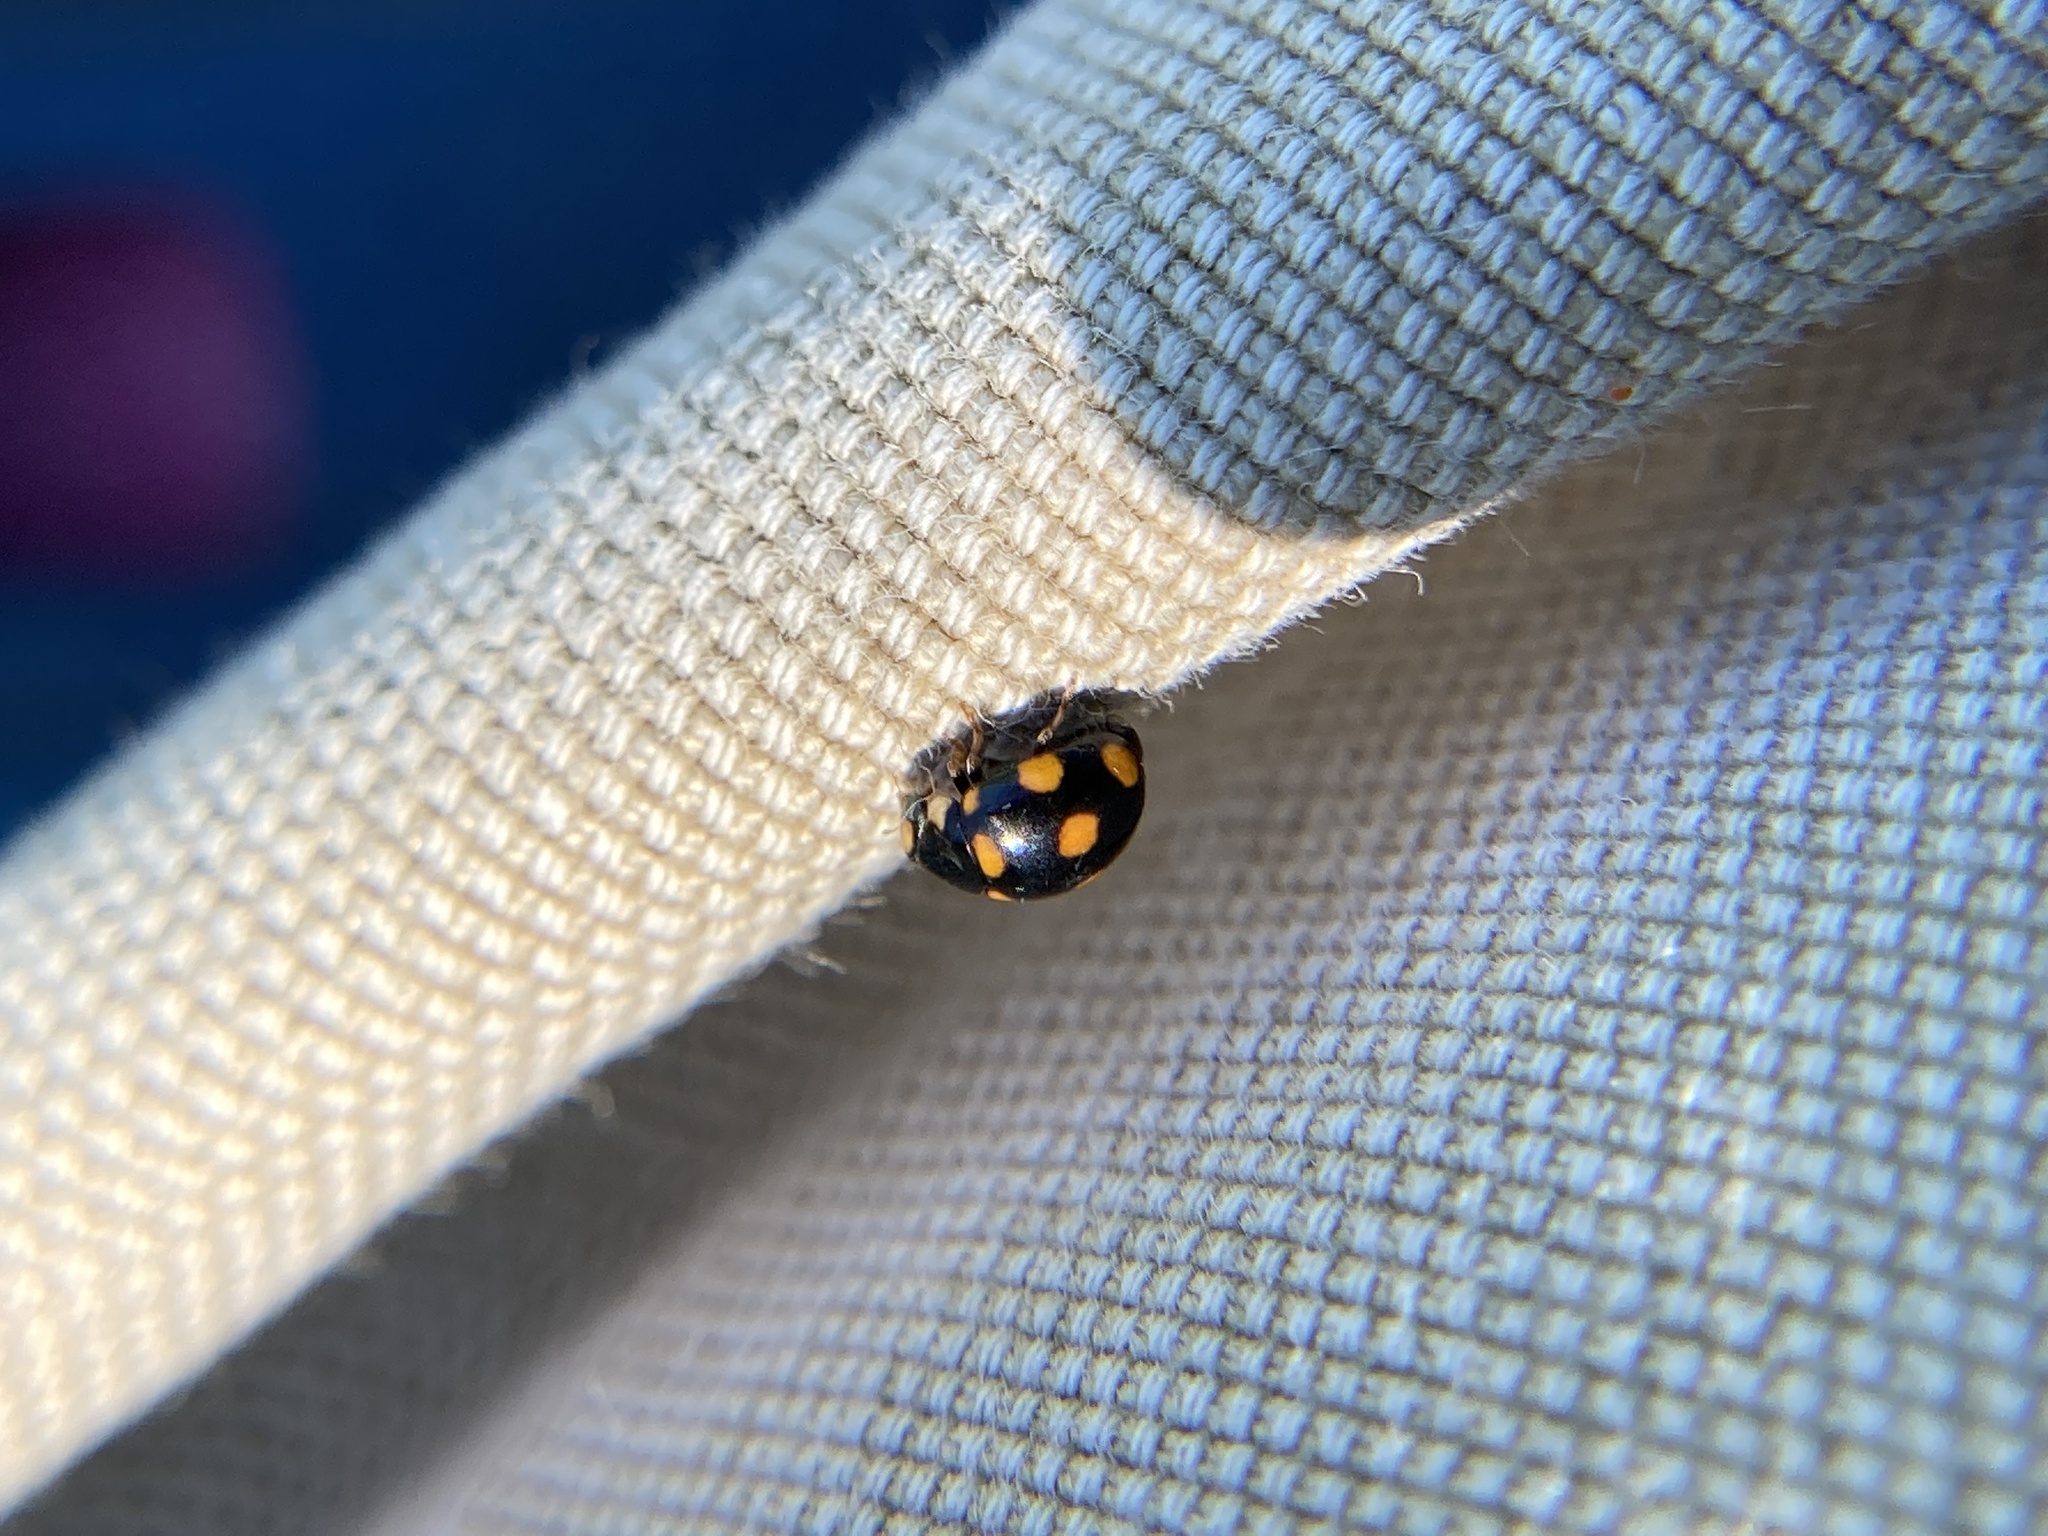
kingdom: Animalia
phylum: Arthropoda
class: Insecta
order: Coleoptera
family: Coccinellidae
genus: Brachiacantha
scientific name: Brachiacantha ursina
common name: Ursine spurleg lady beetle
